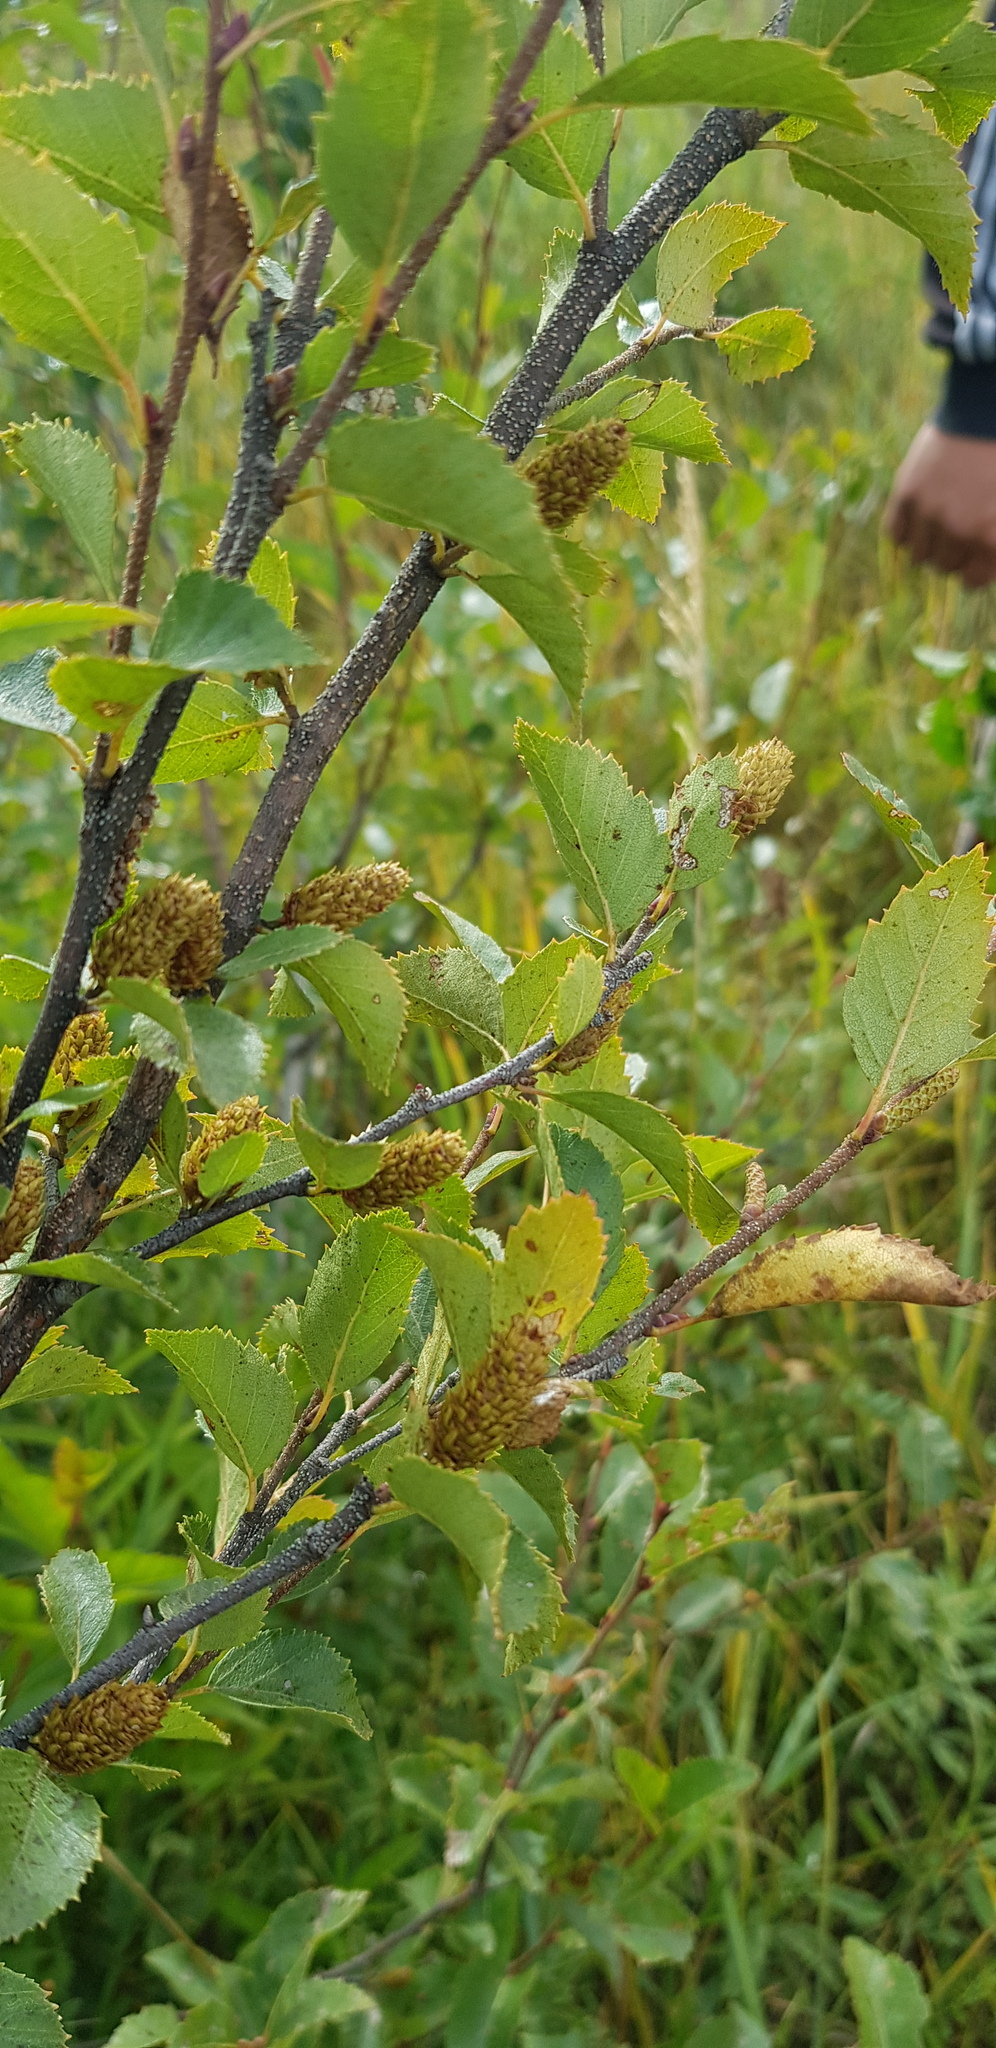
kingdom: Plantae
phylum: Tracheophyta
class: Magnoliopsida
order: Fagales
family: Betulaceae
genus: Betula
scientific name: Betula fruticosa
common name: Japanese bog birch
